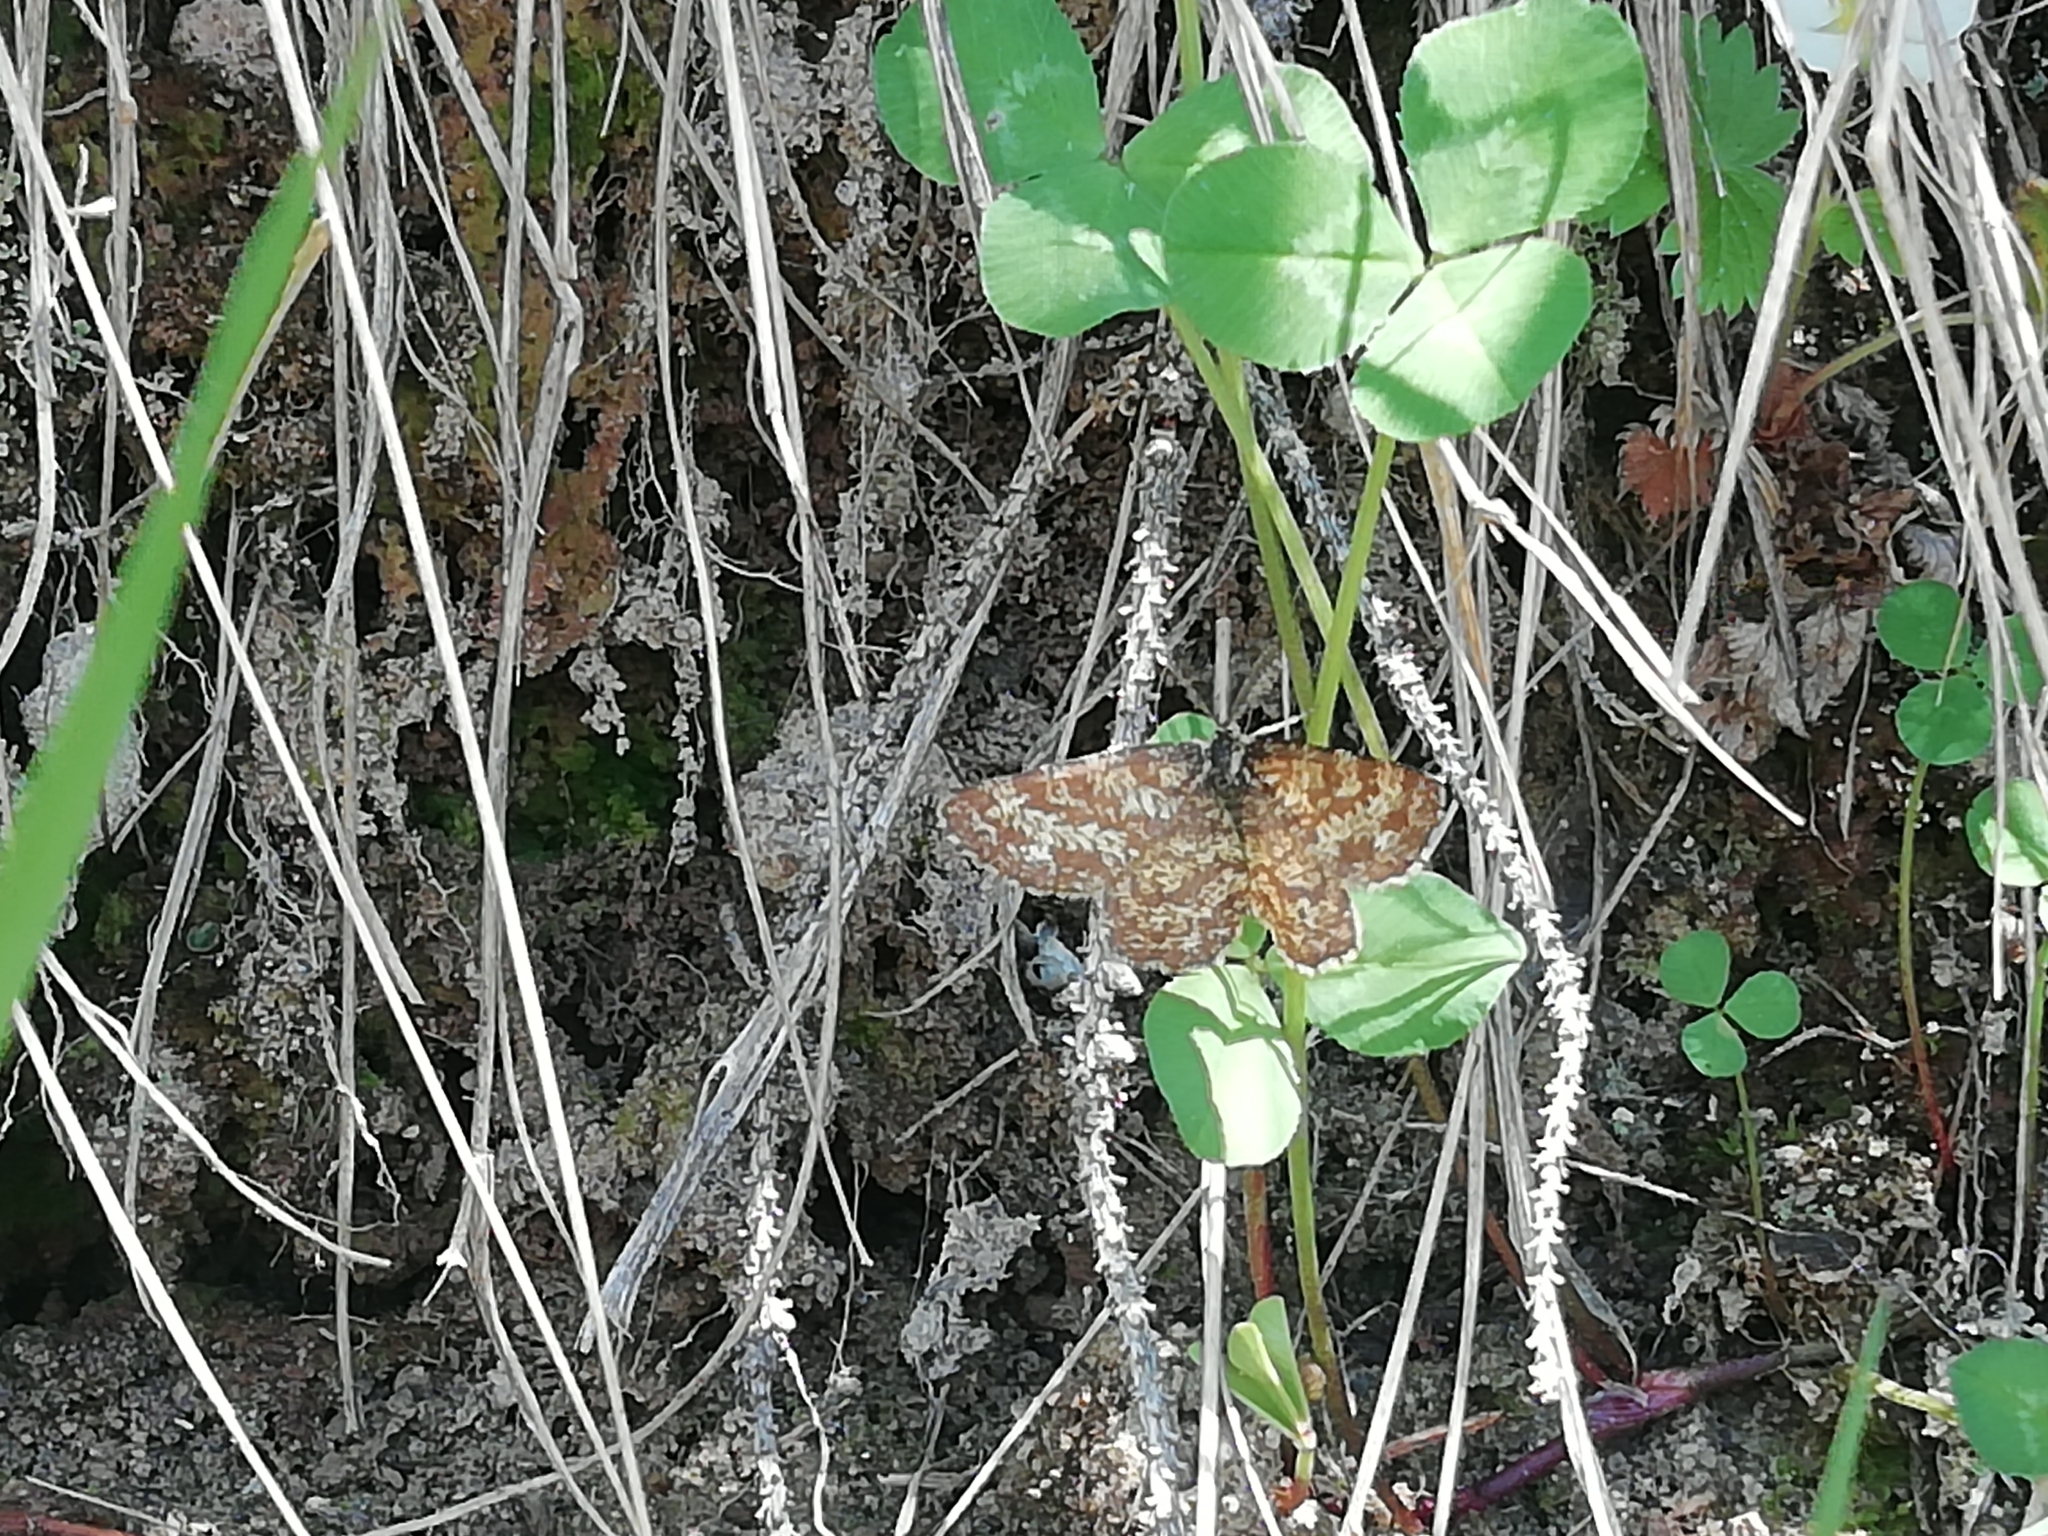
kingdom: Animalia
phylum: Arthropoda
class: Insecta
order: Lepidoptera
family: Geometridae
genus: Ematurga
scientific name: Ematurga atomaria
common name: Common heath
